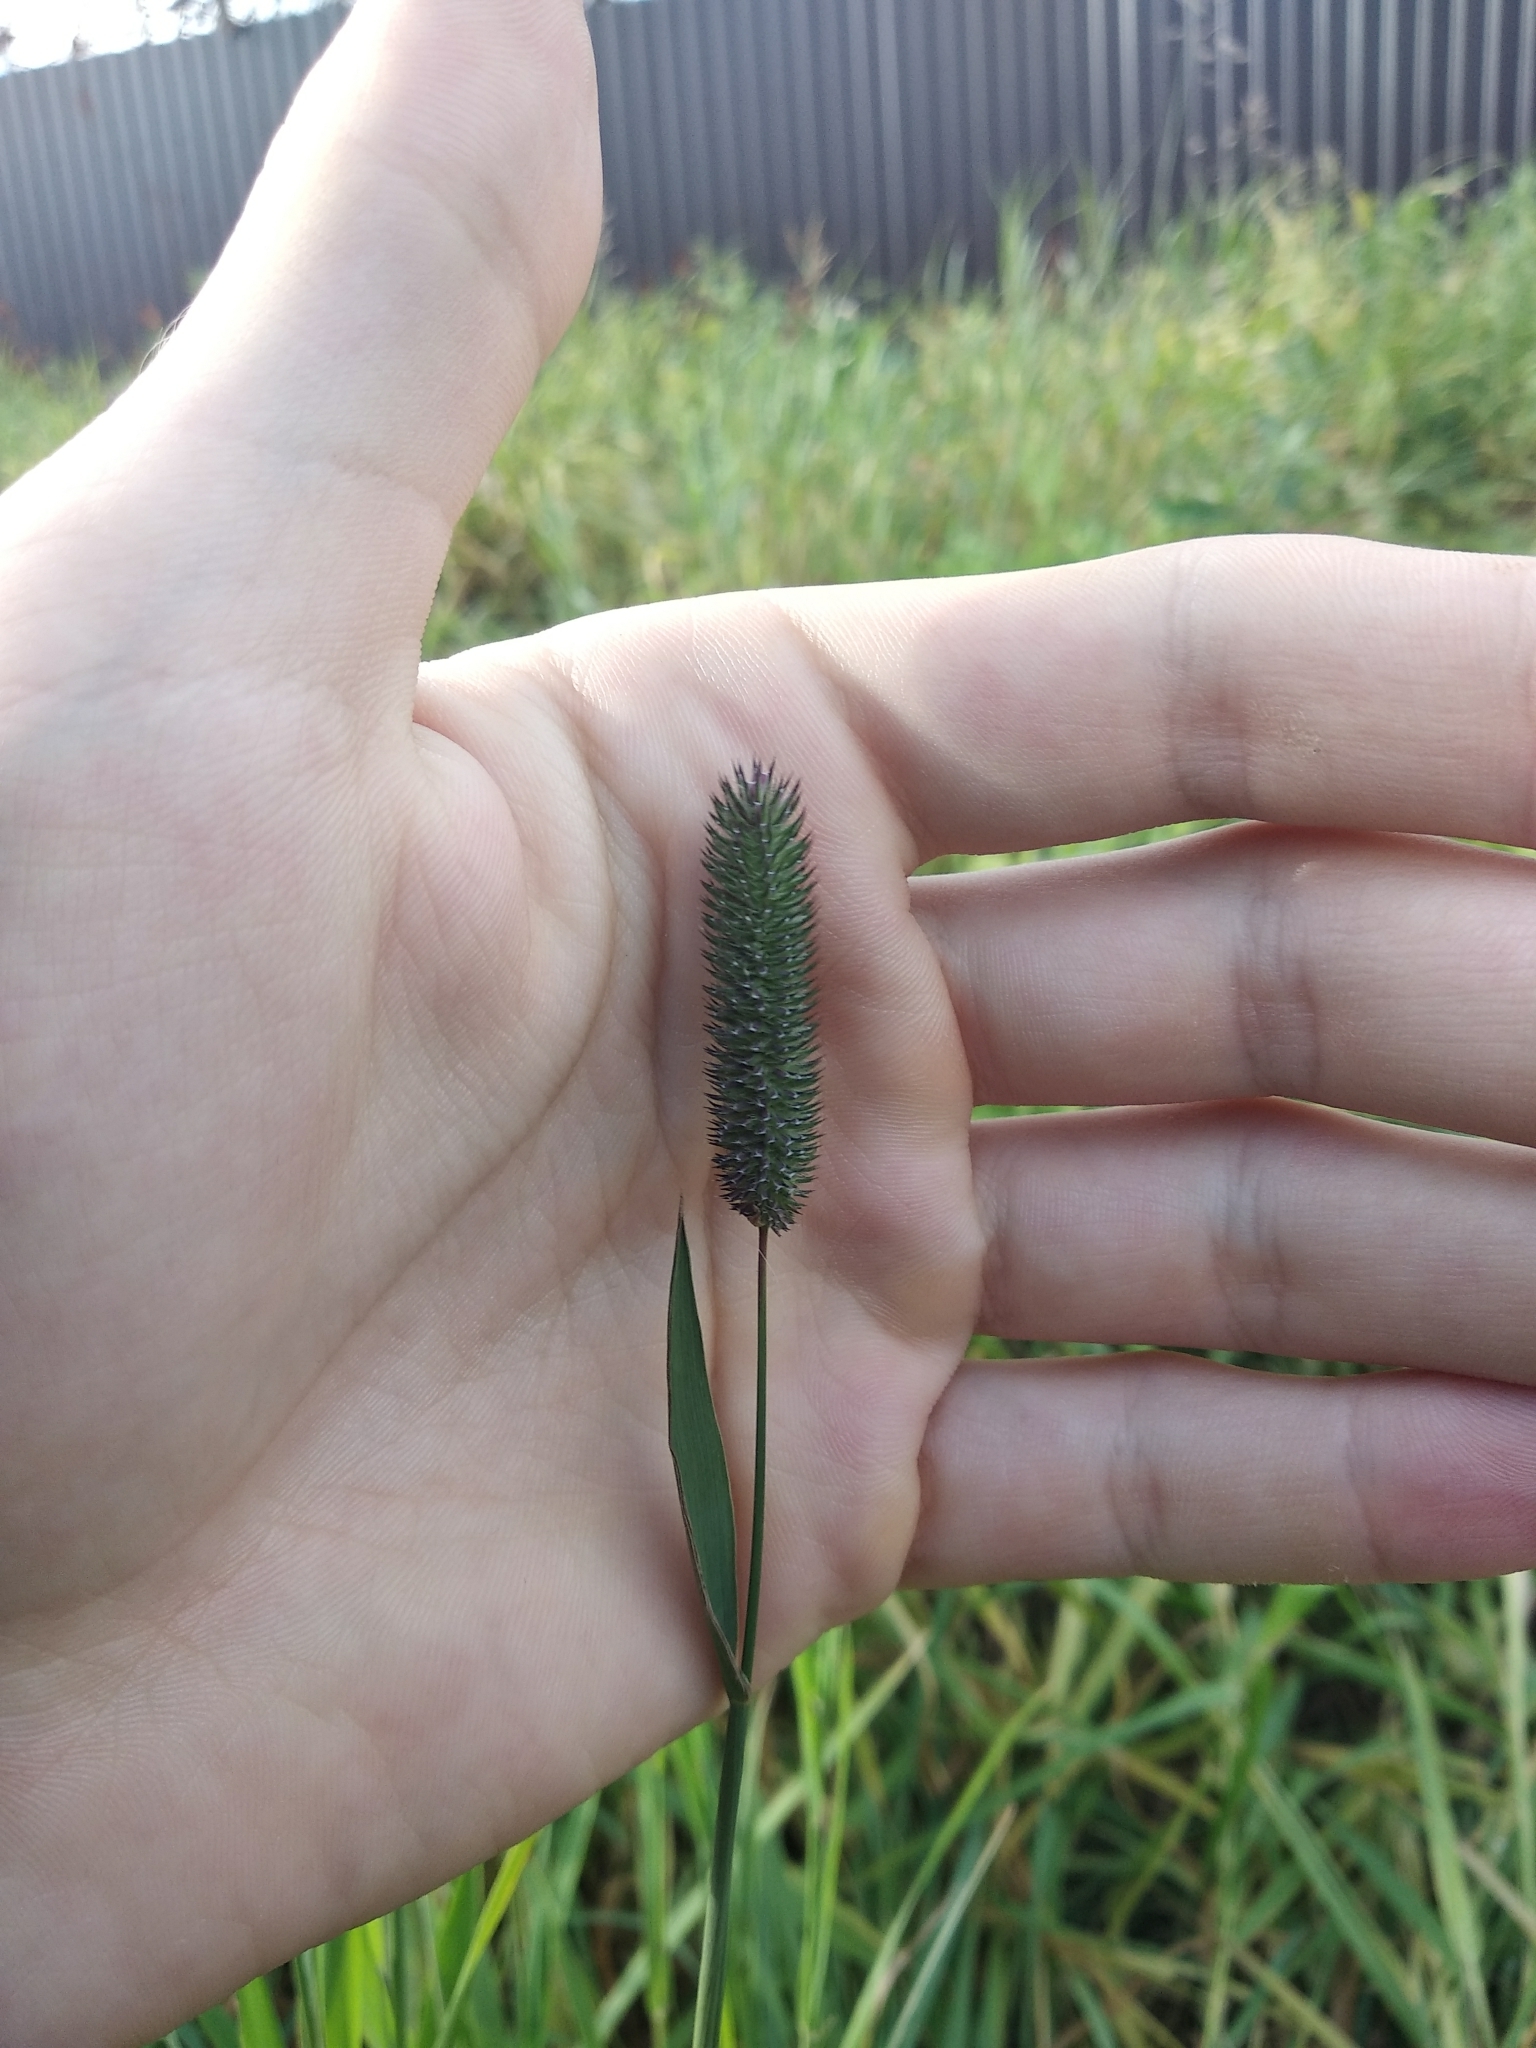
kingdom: Plantae
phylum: Tracheophyta
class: Liliopsida
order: Poales
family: Poaceae
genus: Phleum
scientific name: Phleum pratense
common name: Timothy grass
